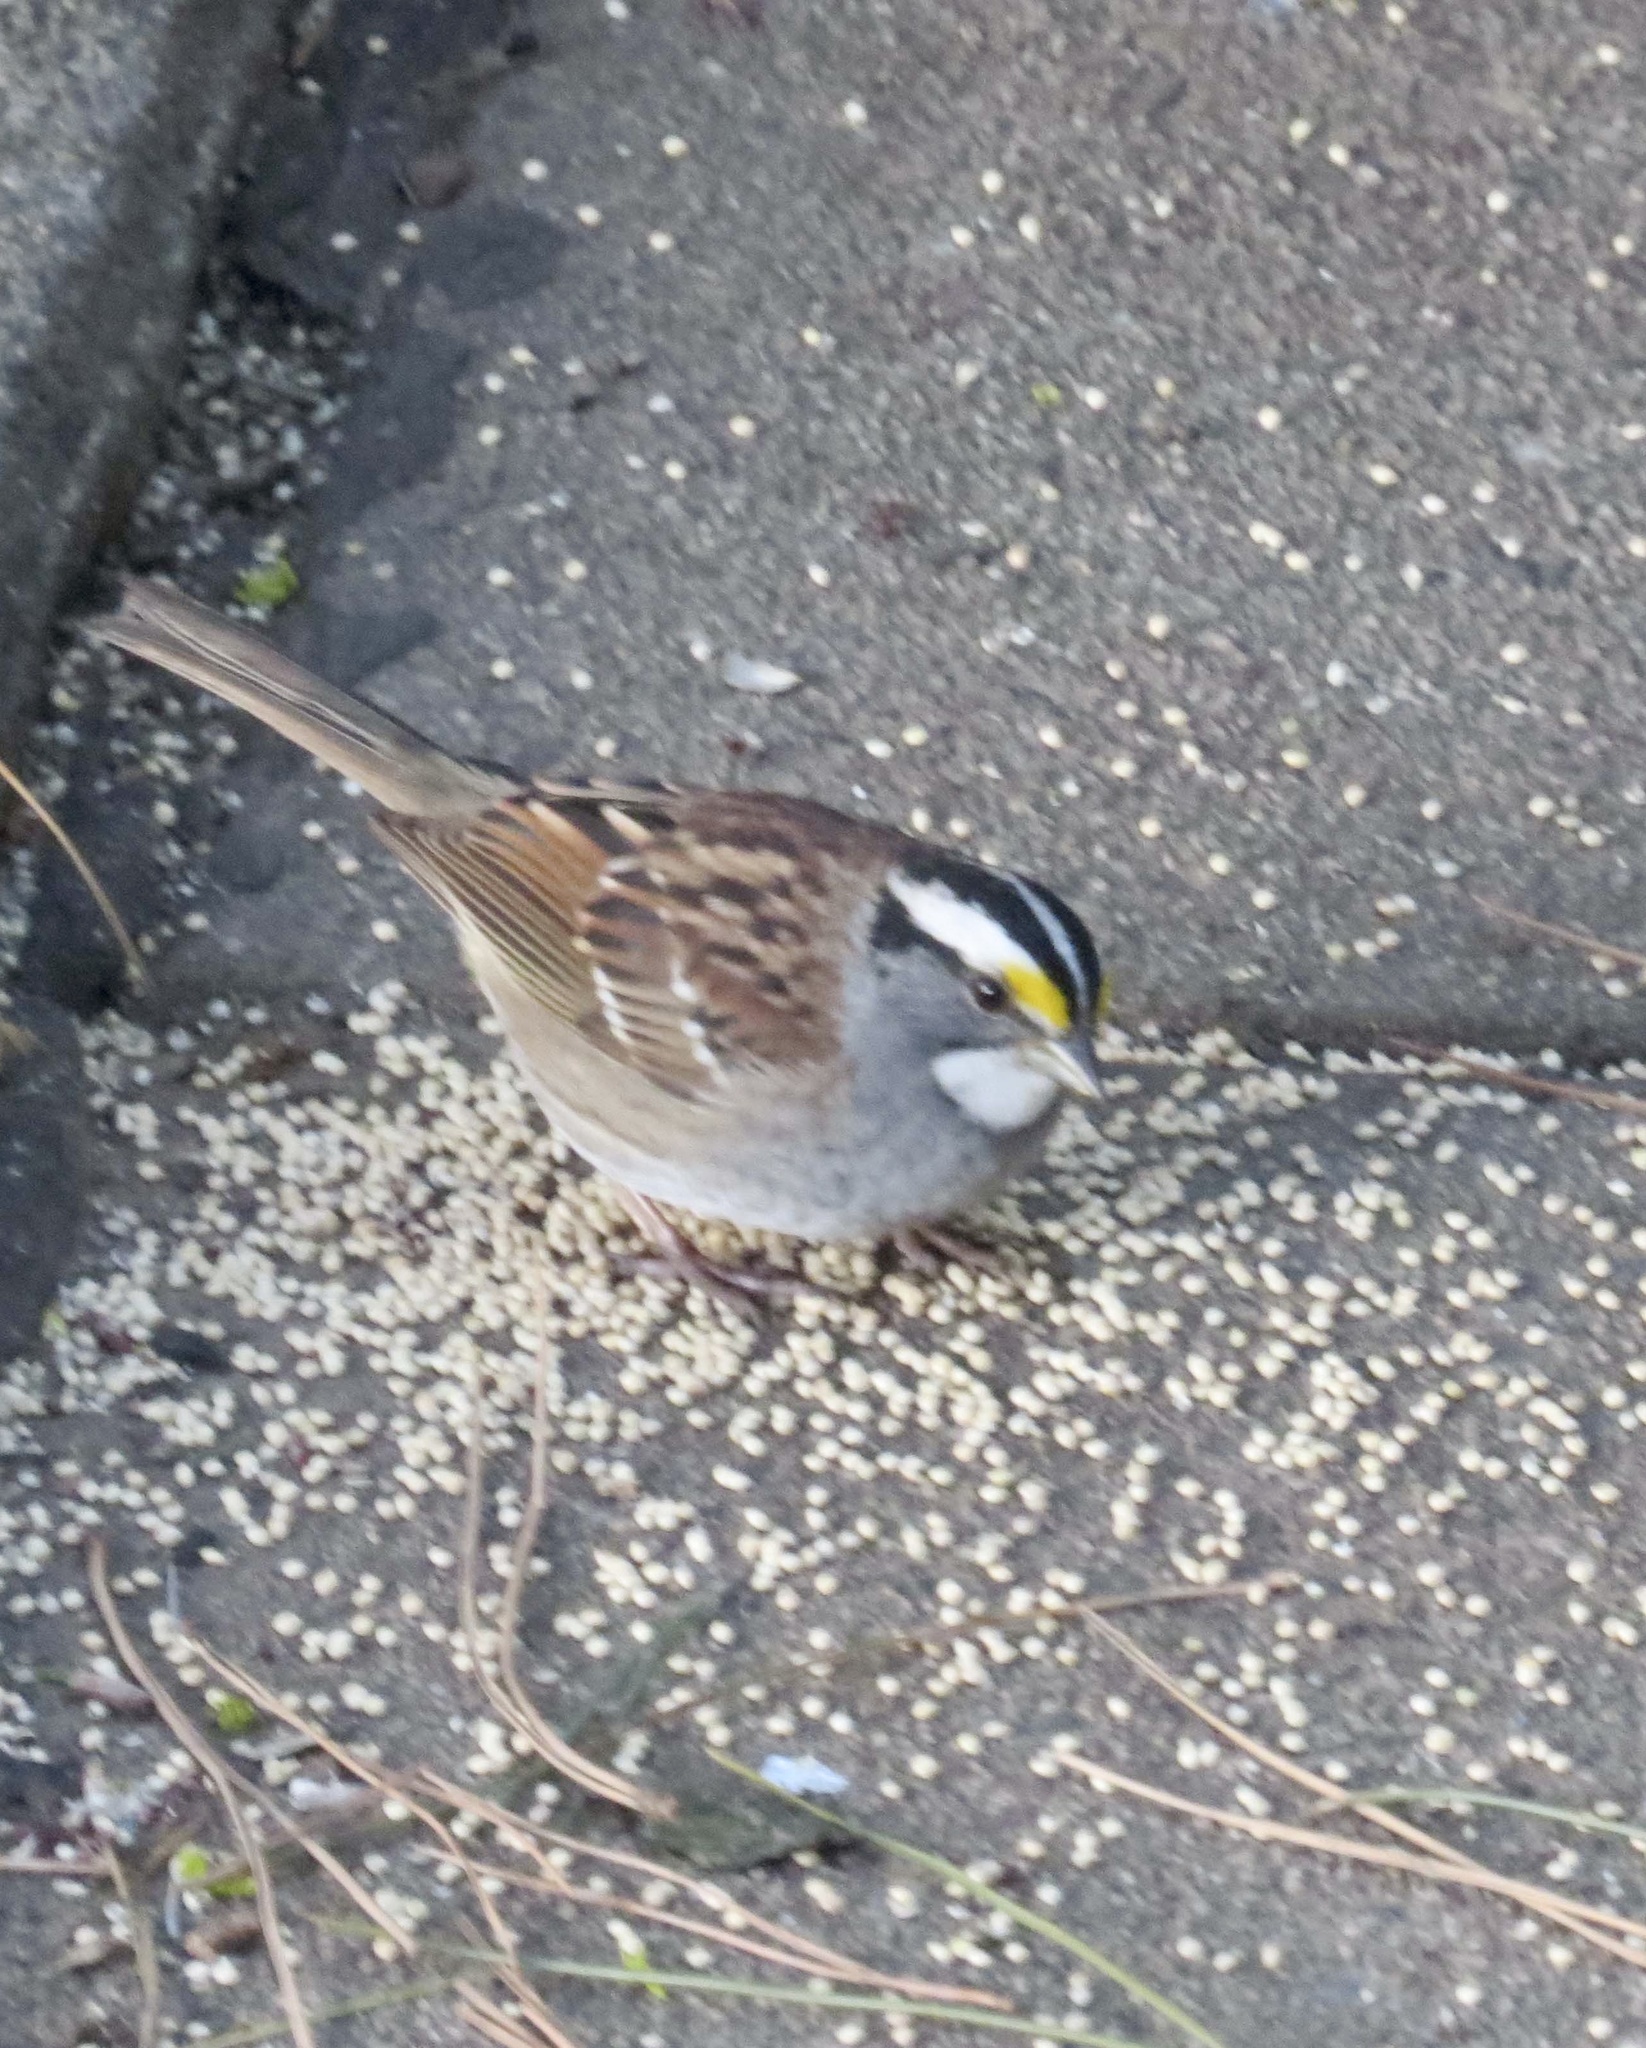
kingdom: Animalia
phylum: Chordata
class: Aves
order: Passeriformes
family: Passerellidae
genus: Zonotrichia
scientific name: Zonotrichia albicollis
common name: White-throated sparrow
